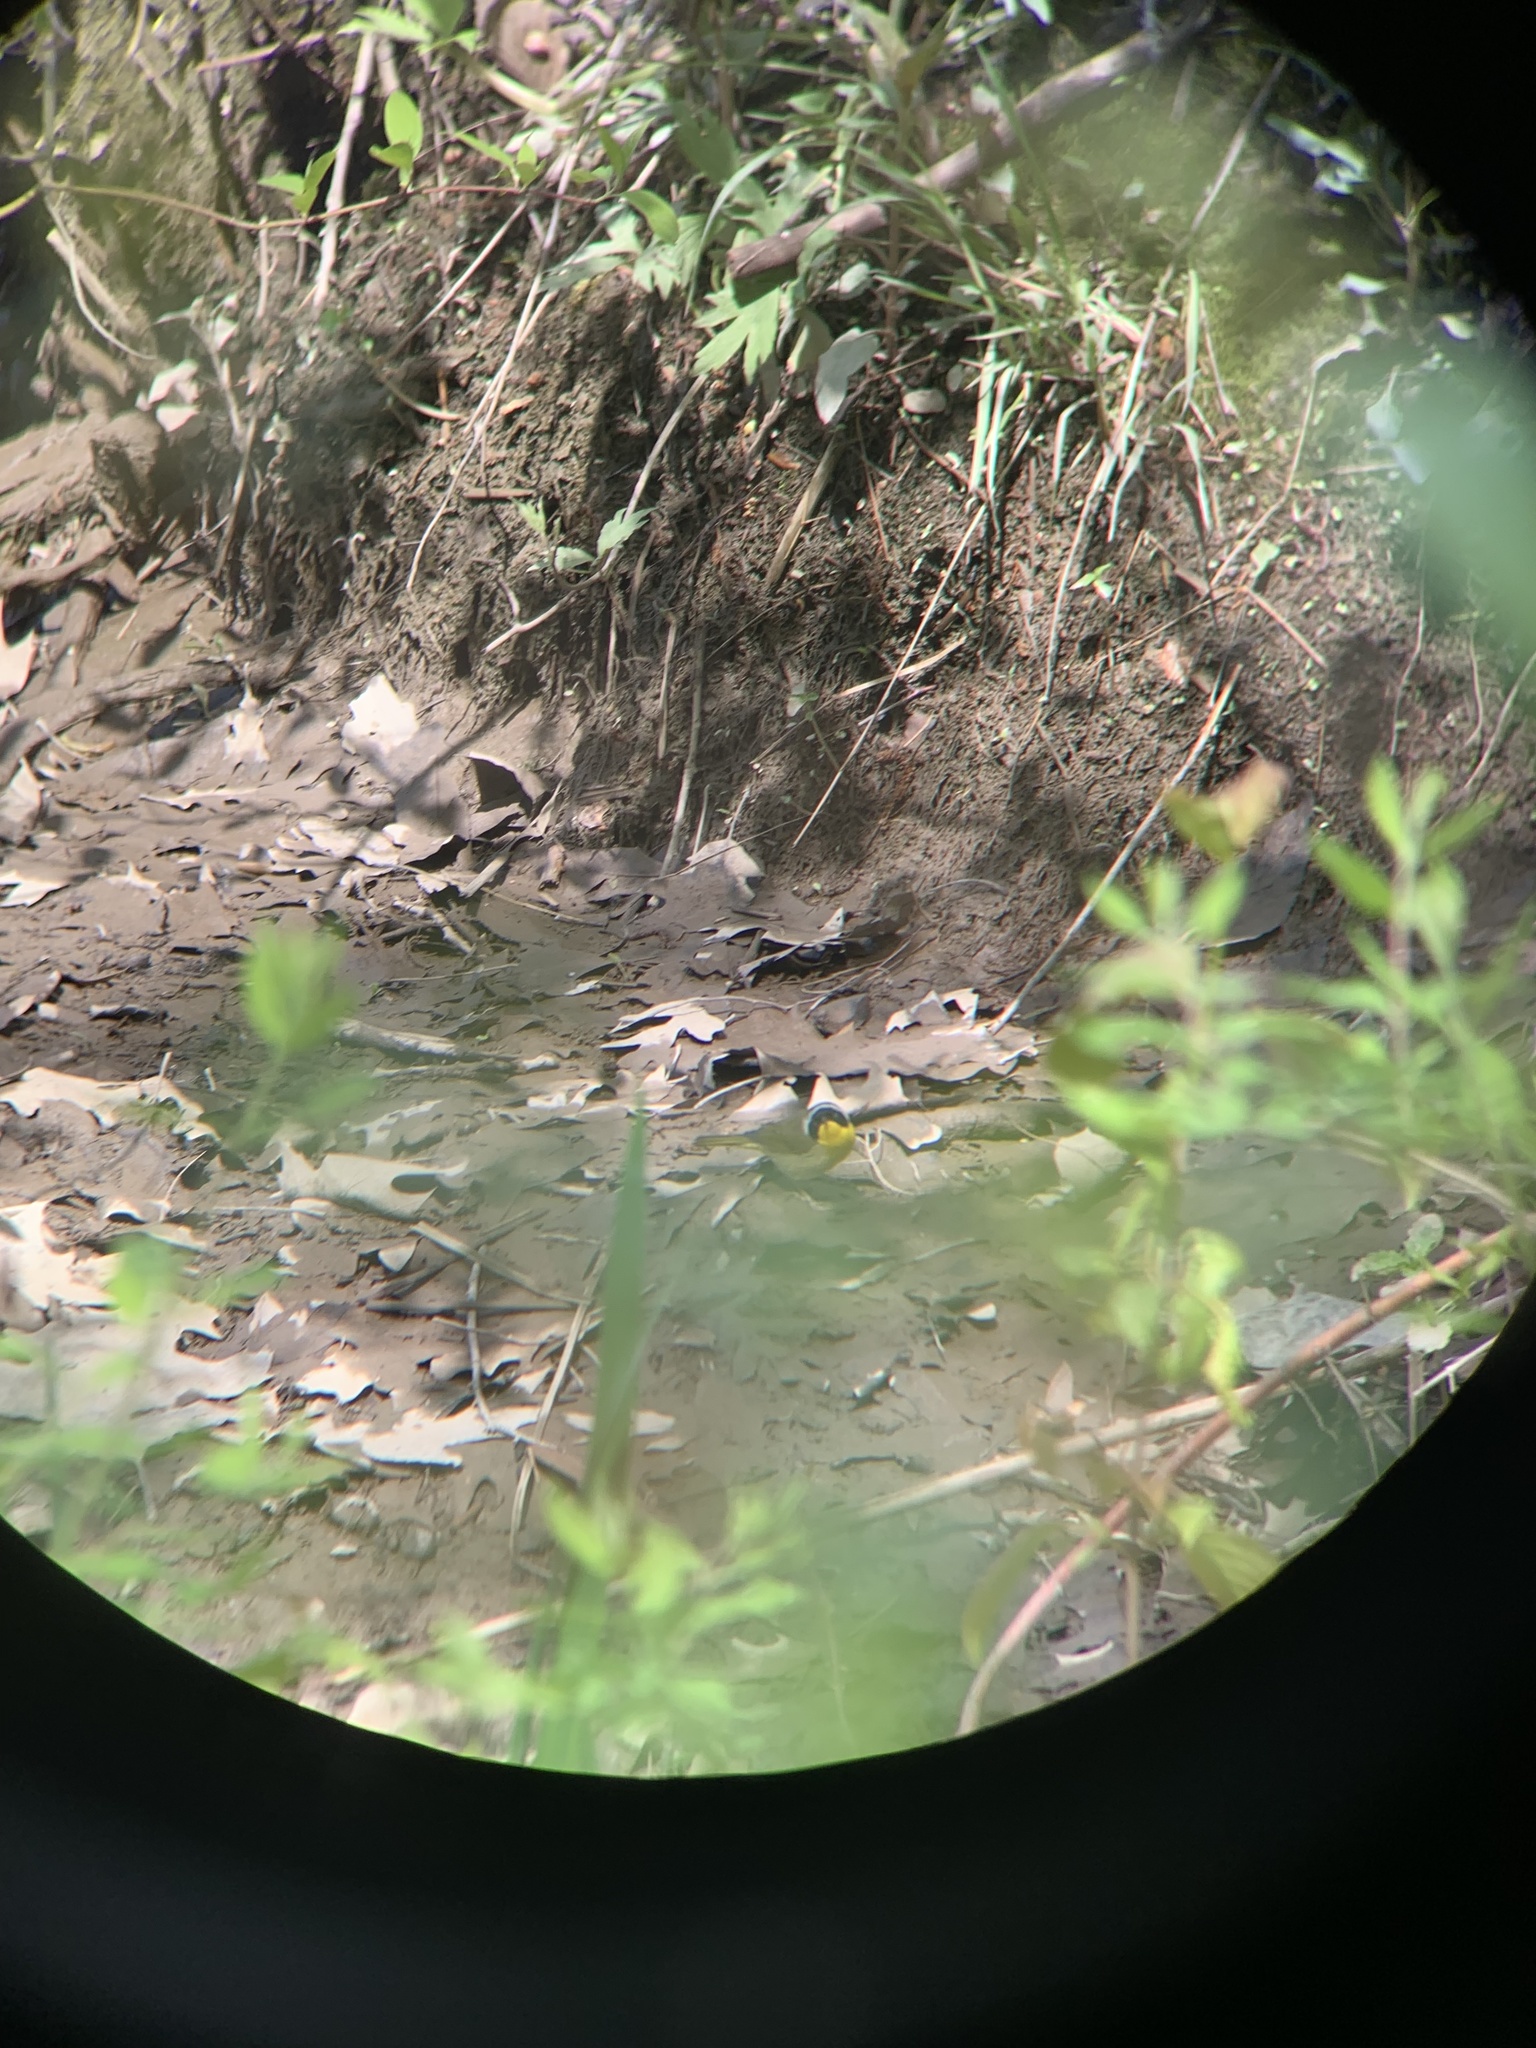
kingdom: Animalia
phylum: Chordata
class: Aves
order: Passeriformes
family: Parulidae
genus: Geothlypis
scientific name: Geothlypis trichas
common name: Common yellowthroat
